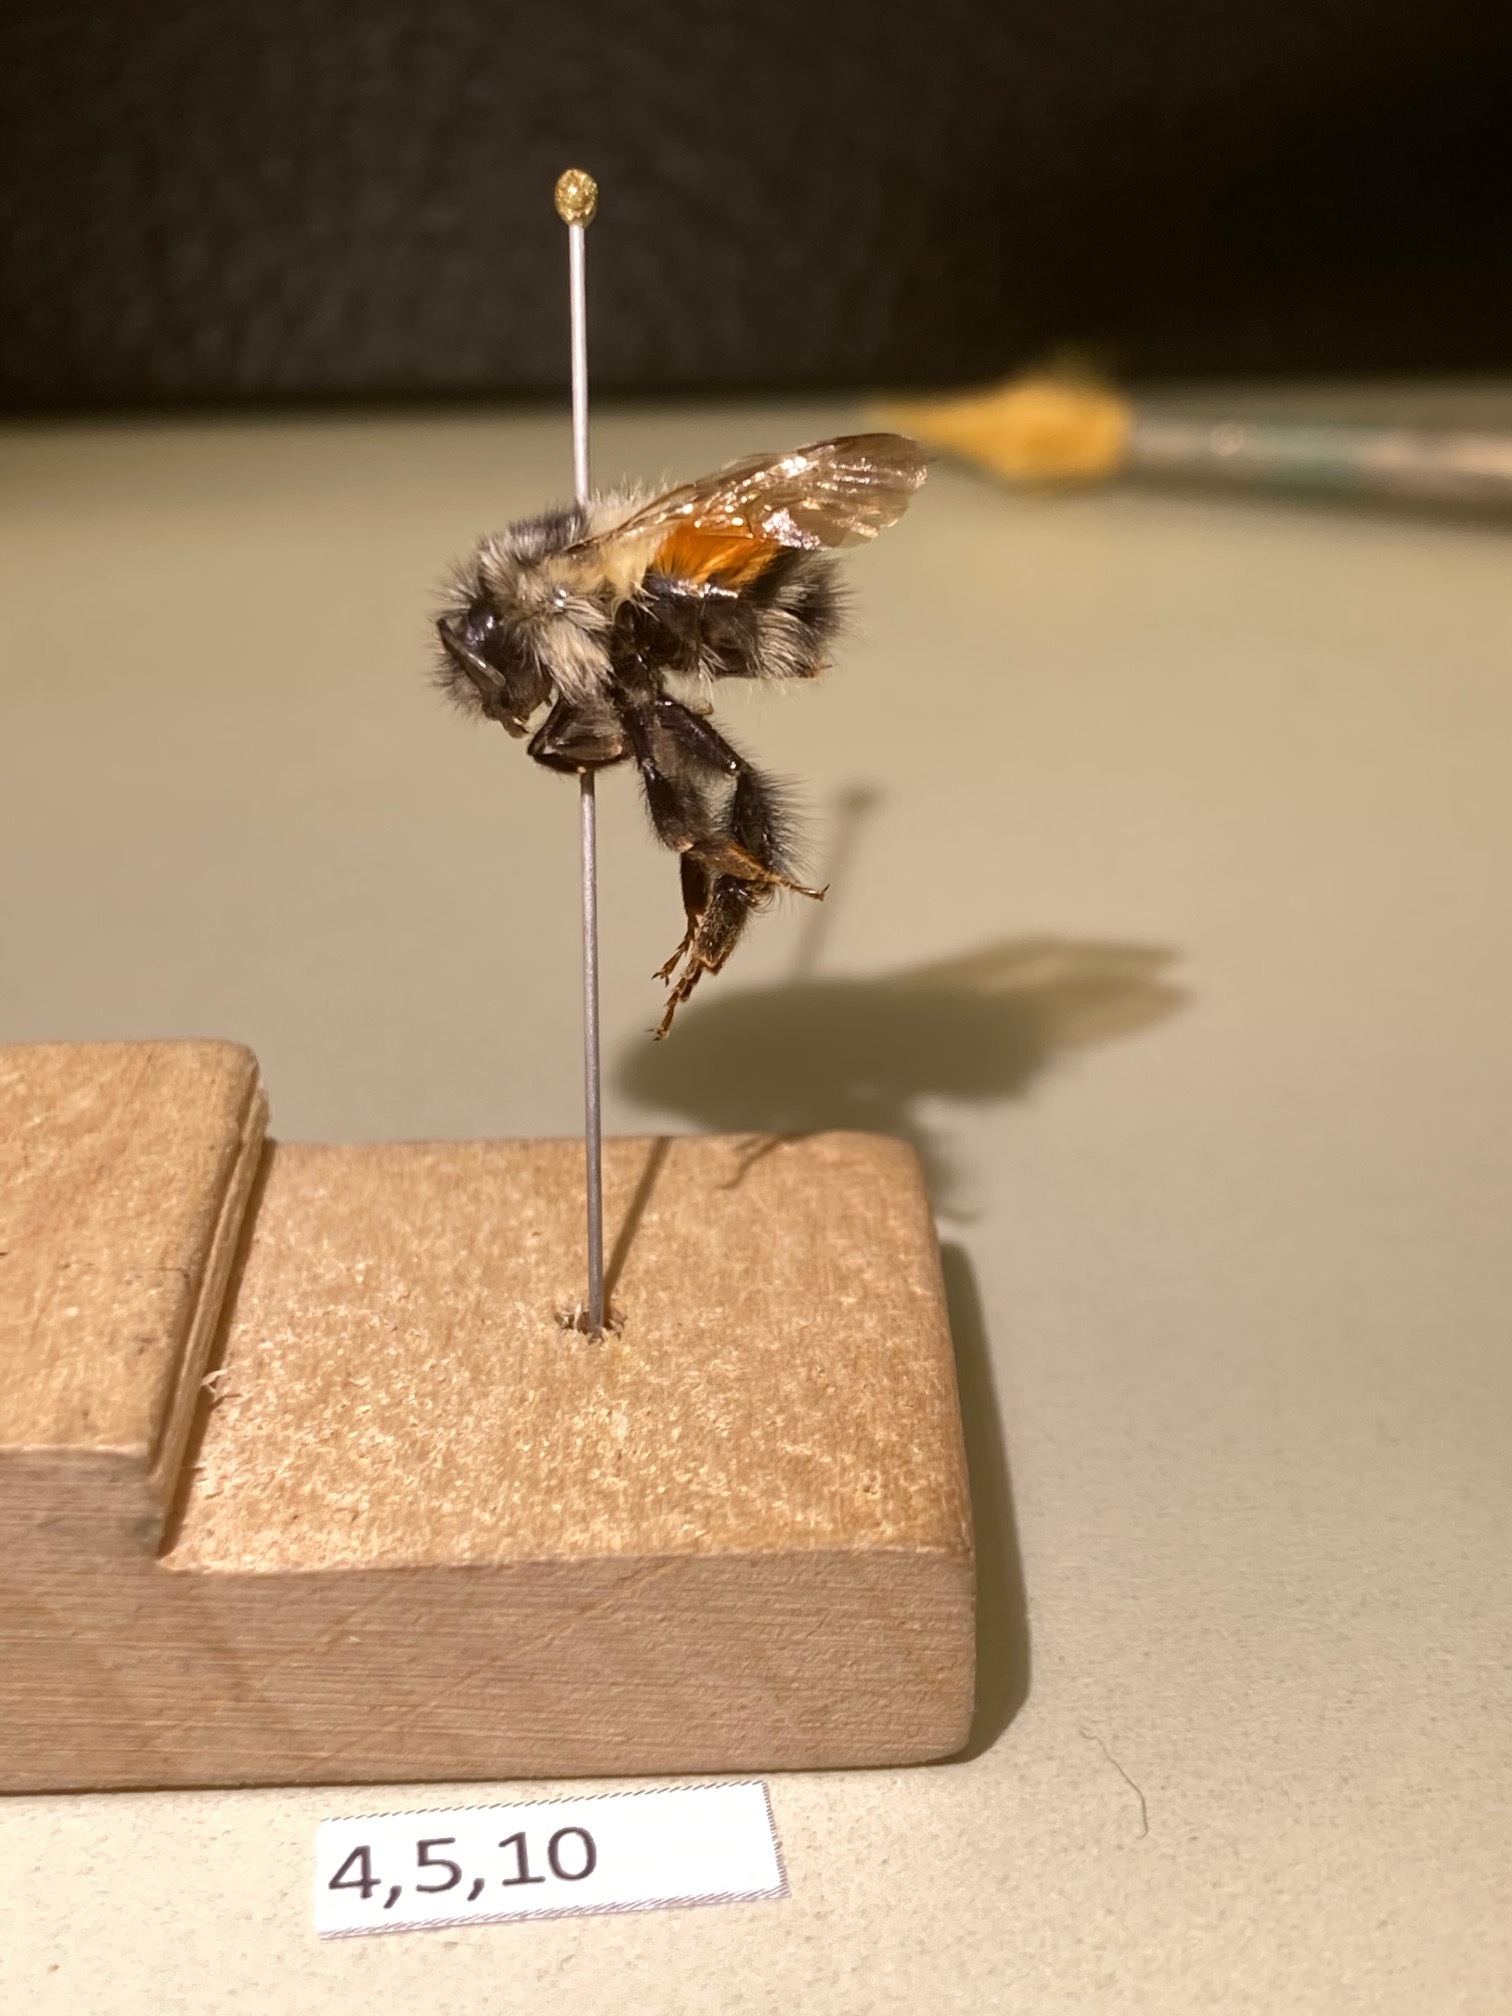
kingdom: Animalia
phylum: Arthropoda
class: Insecta
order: Hymenoptera
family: Apidae
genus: Bombus
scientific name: Bombus melanopygus
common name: Black tail bumble bee
